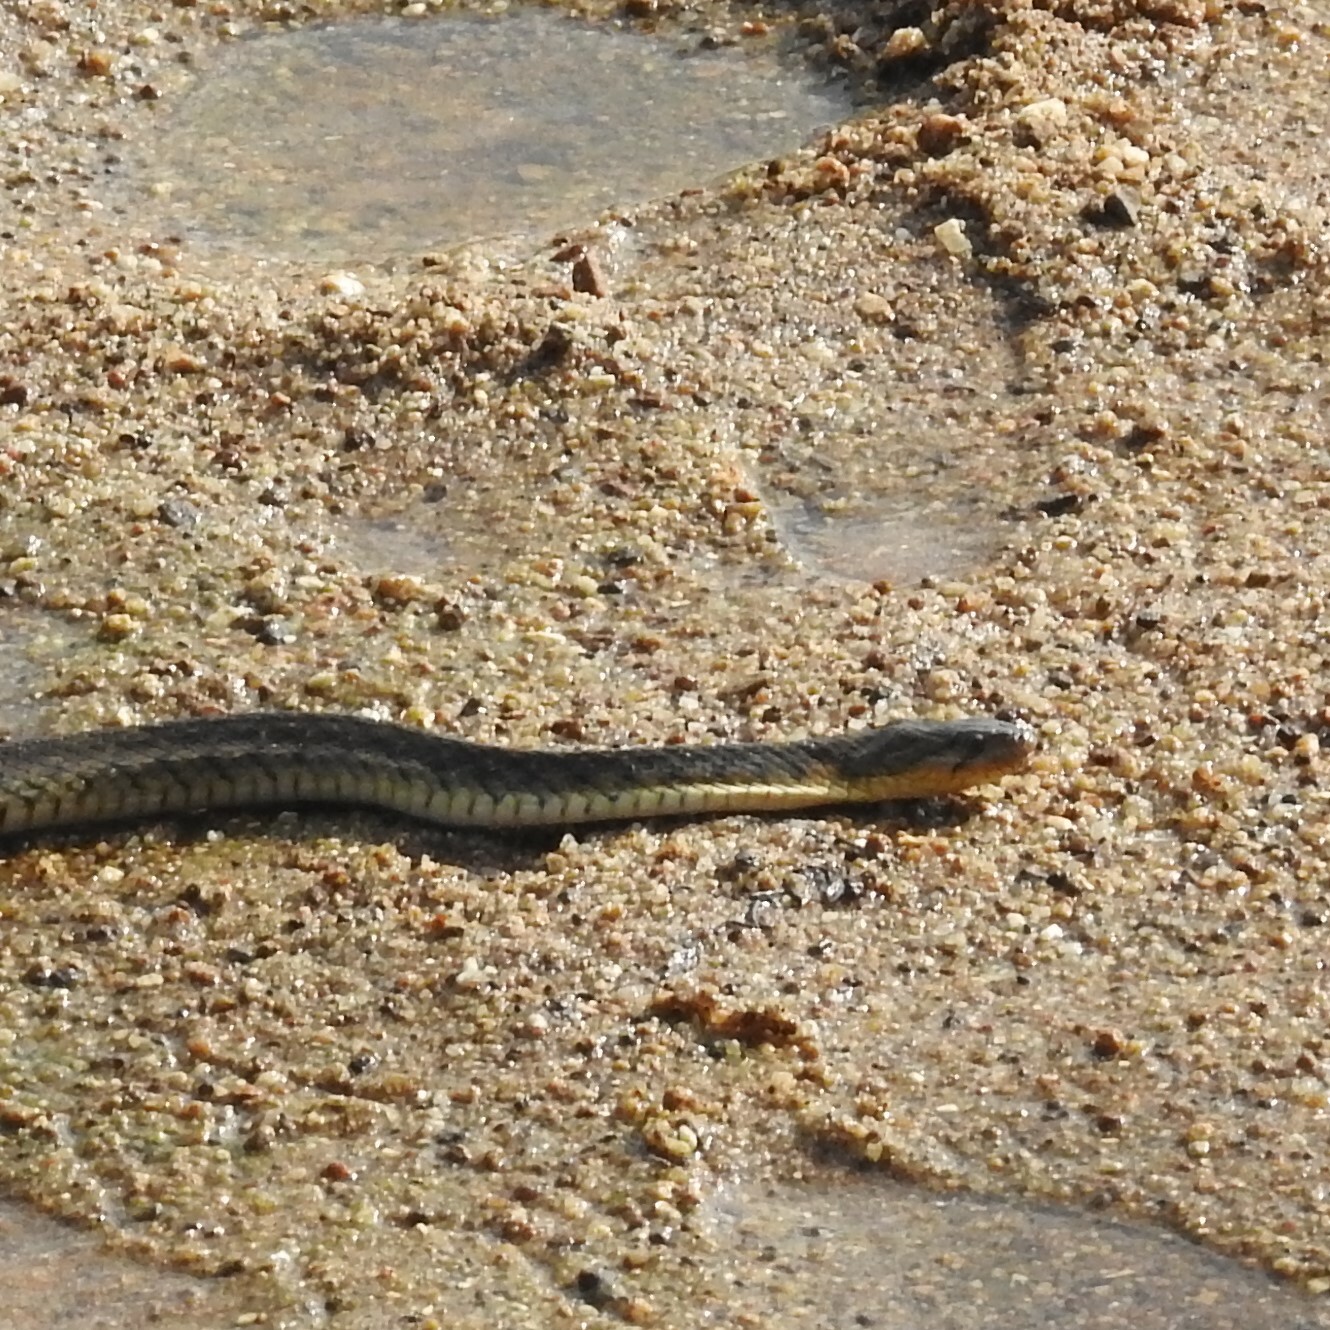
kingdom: Animalia
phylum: Chordata
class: Squamata
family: Colubridae
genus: Fowlea
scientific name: Fowlea piscator
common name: Asiatic water snake
